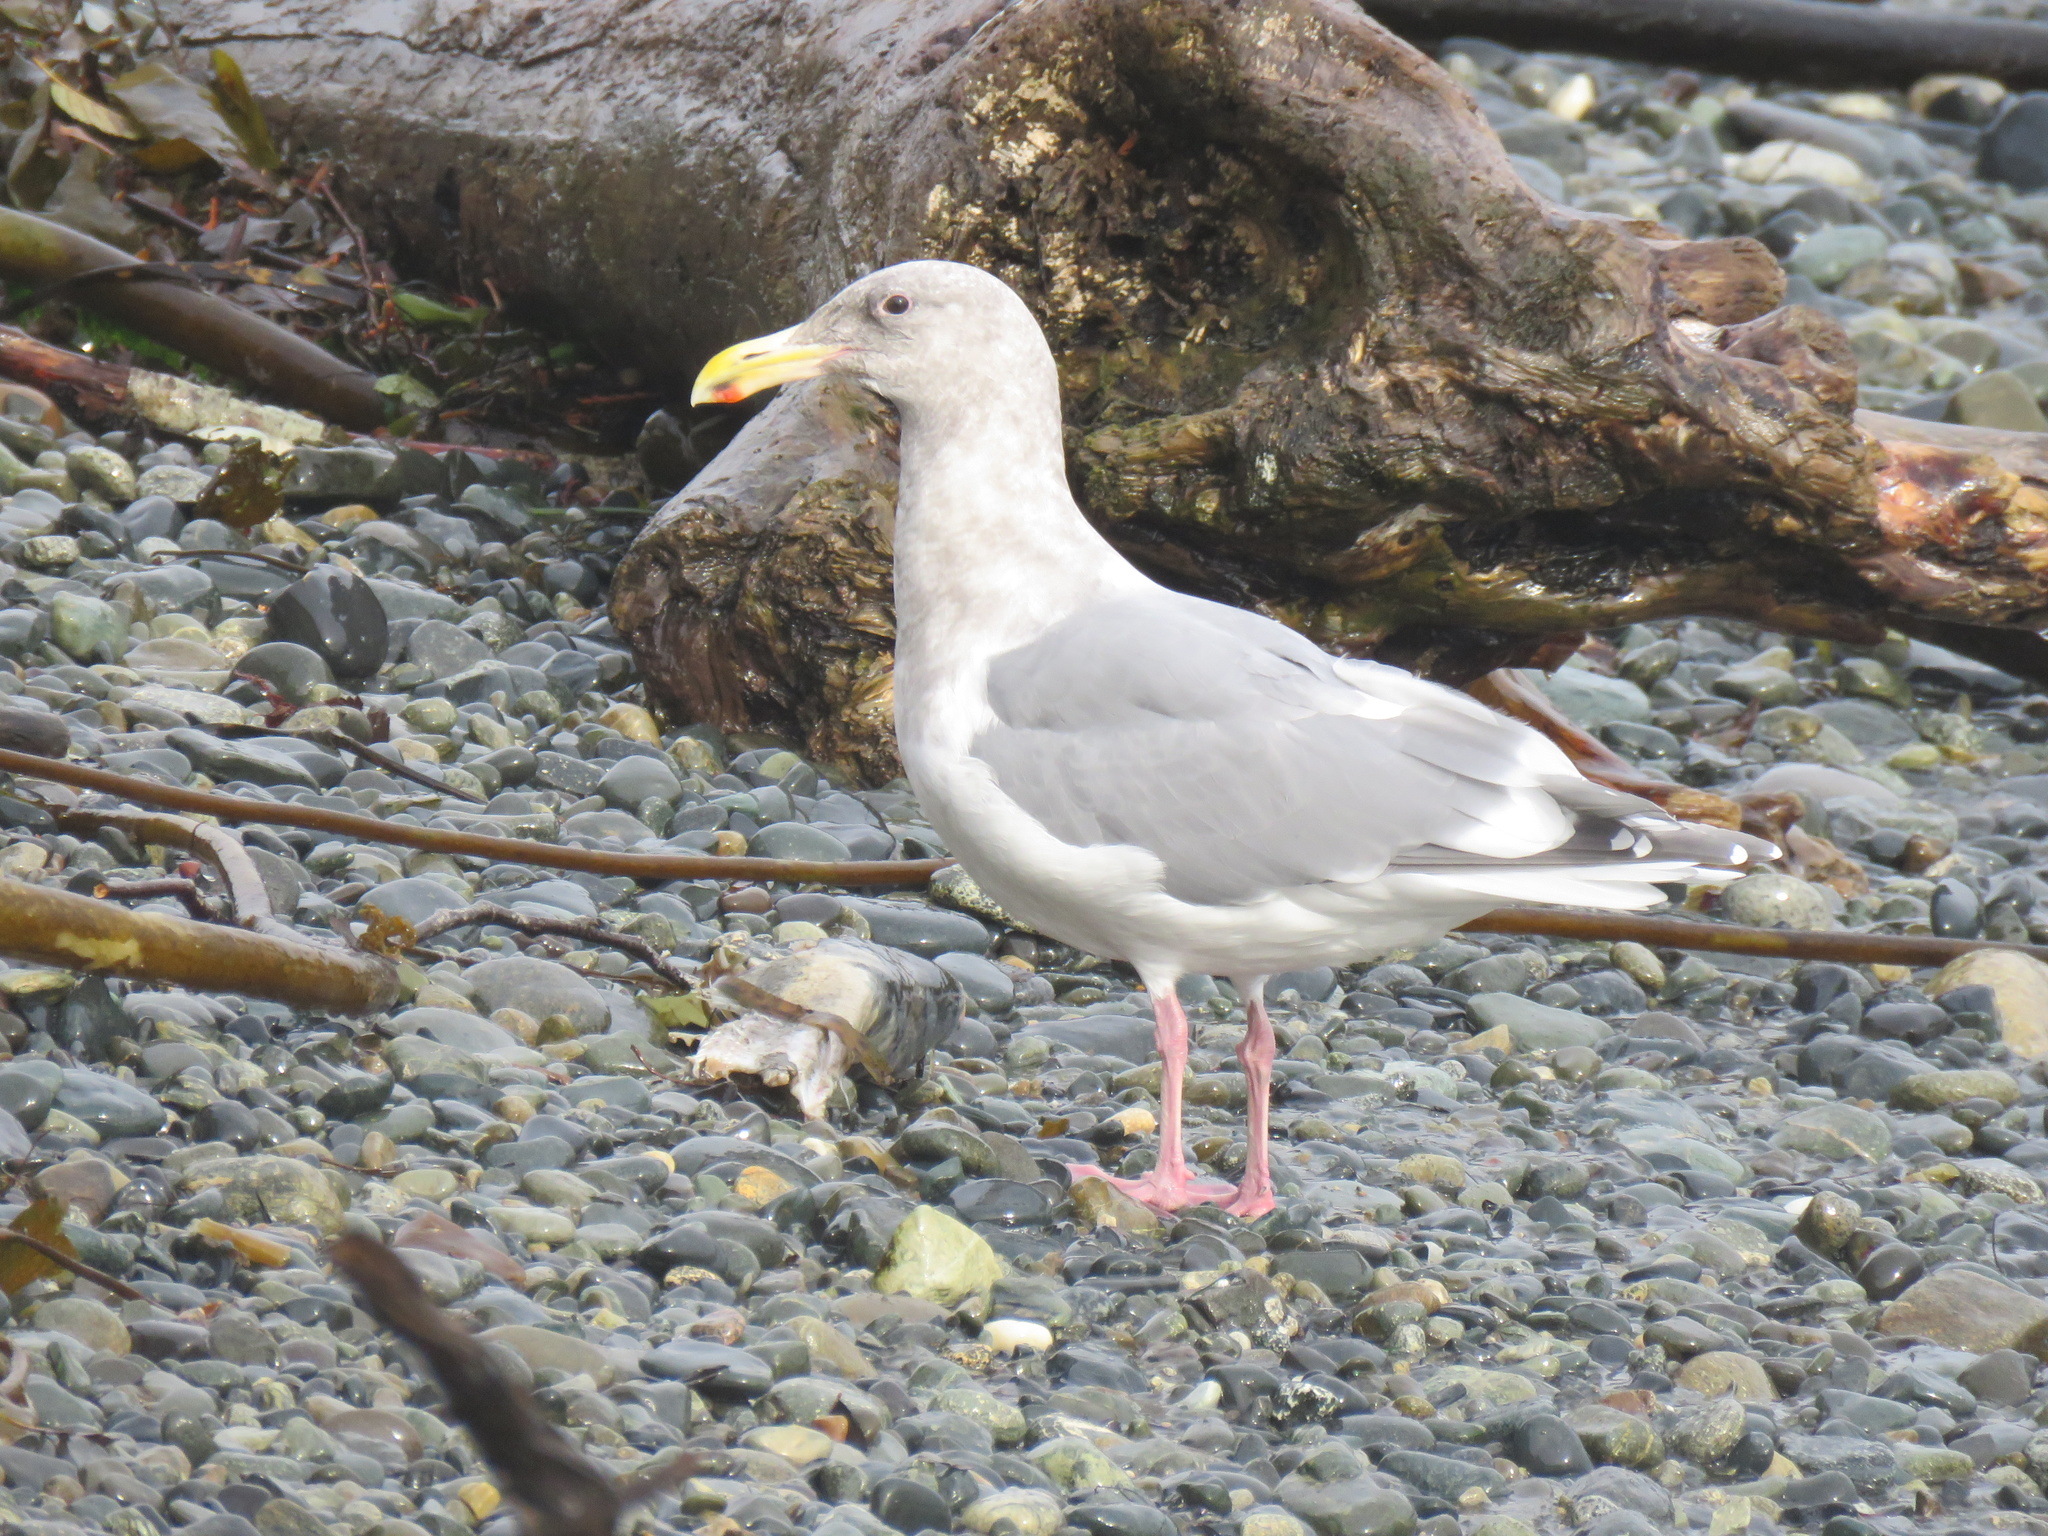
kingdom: Animalia
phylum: Chordata
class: Aves
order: Charadriiformes
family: Laridae
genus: Larus
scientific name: Larus
